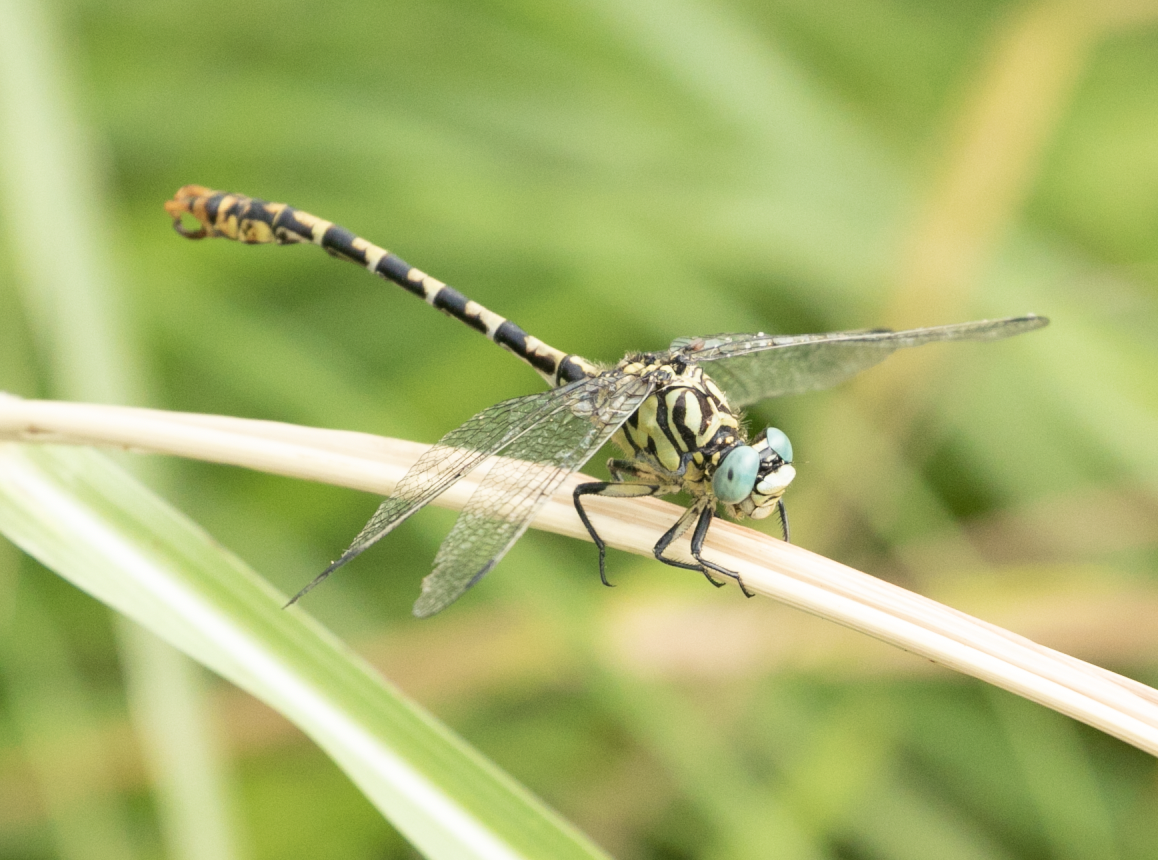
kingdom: Animalia
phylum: Arthropoda
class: Insecta
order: Odonata
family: Gomphidae
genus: Onychogomphus
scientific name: Onychogomphus forcipatus
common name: Small pincertail
